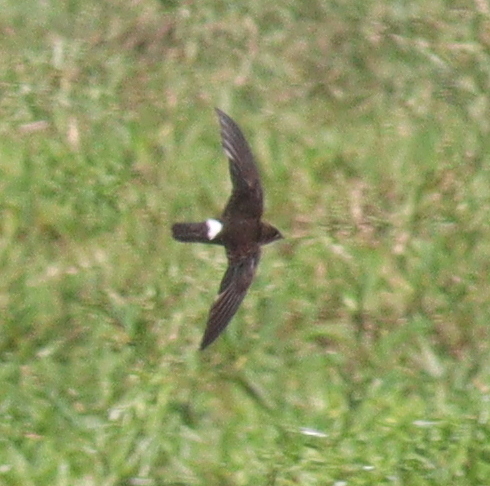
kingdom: Animalia
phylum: Chordata
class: Aves
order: Apodiformes
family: Apodidae
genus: Telacanthura
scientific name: Telacanthura ussheri
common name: Mottled spinetail
